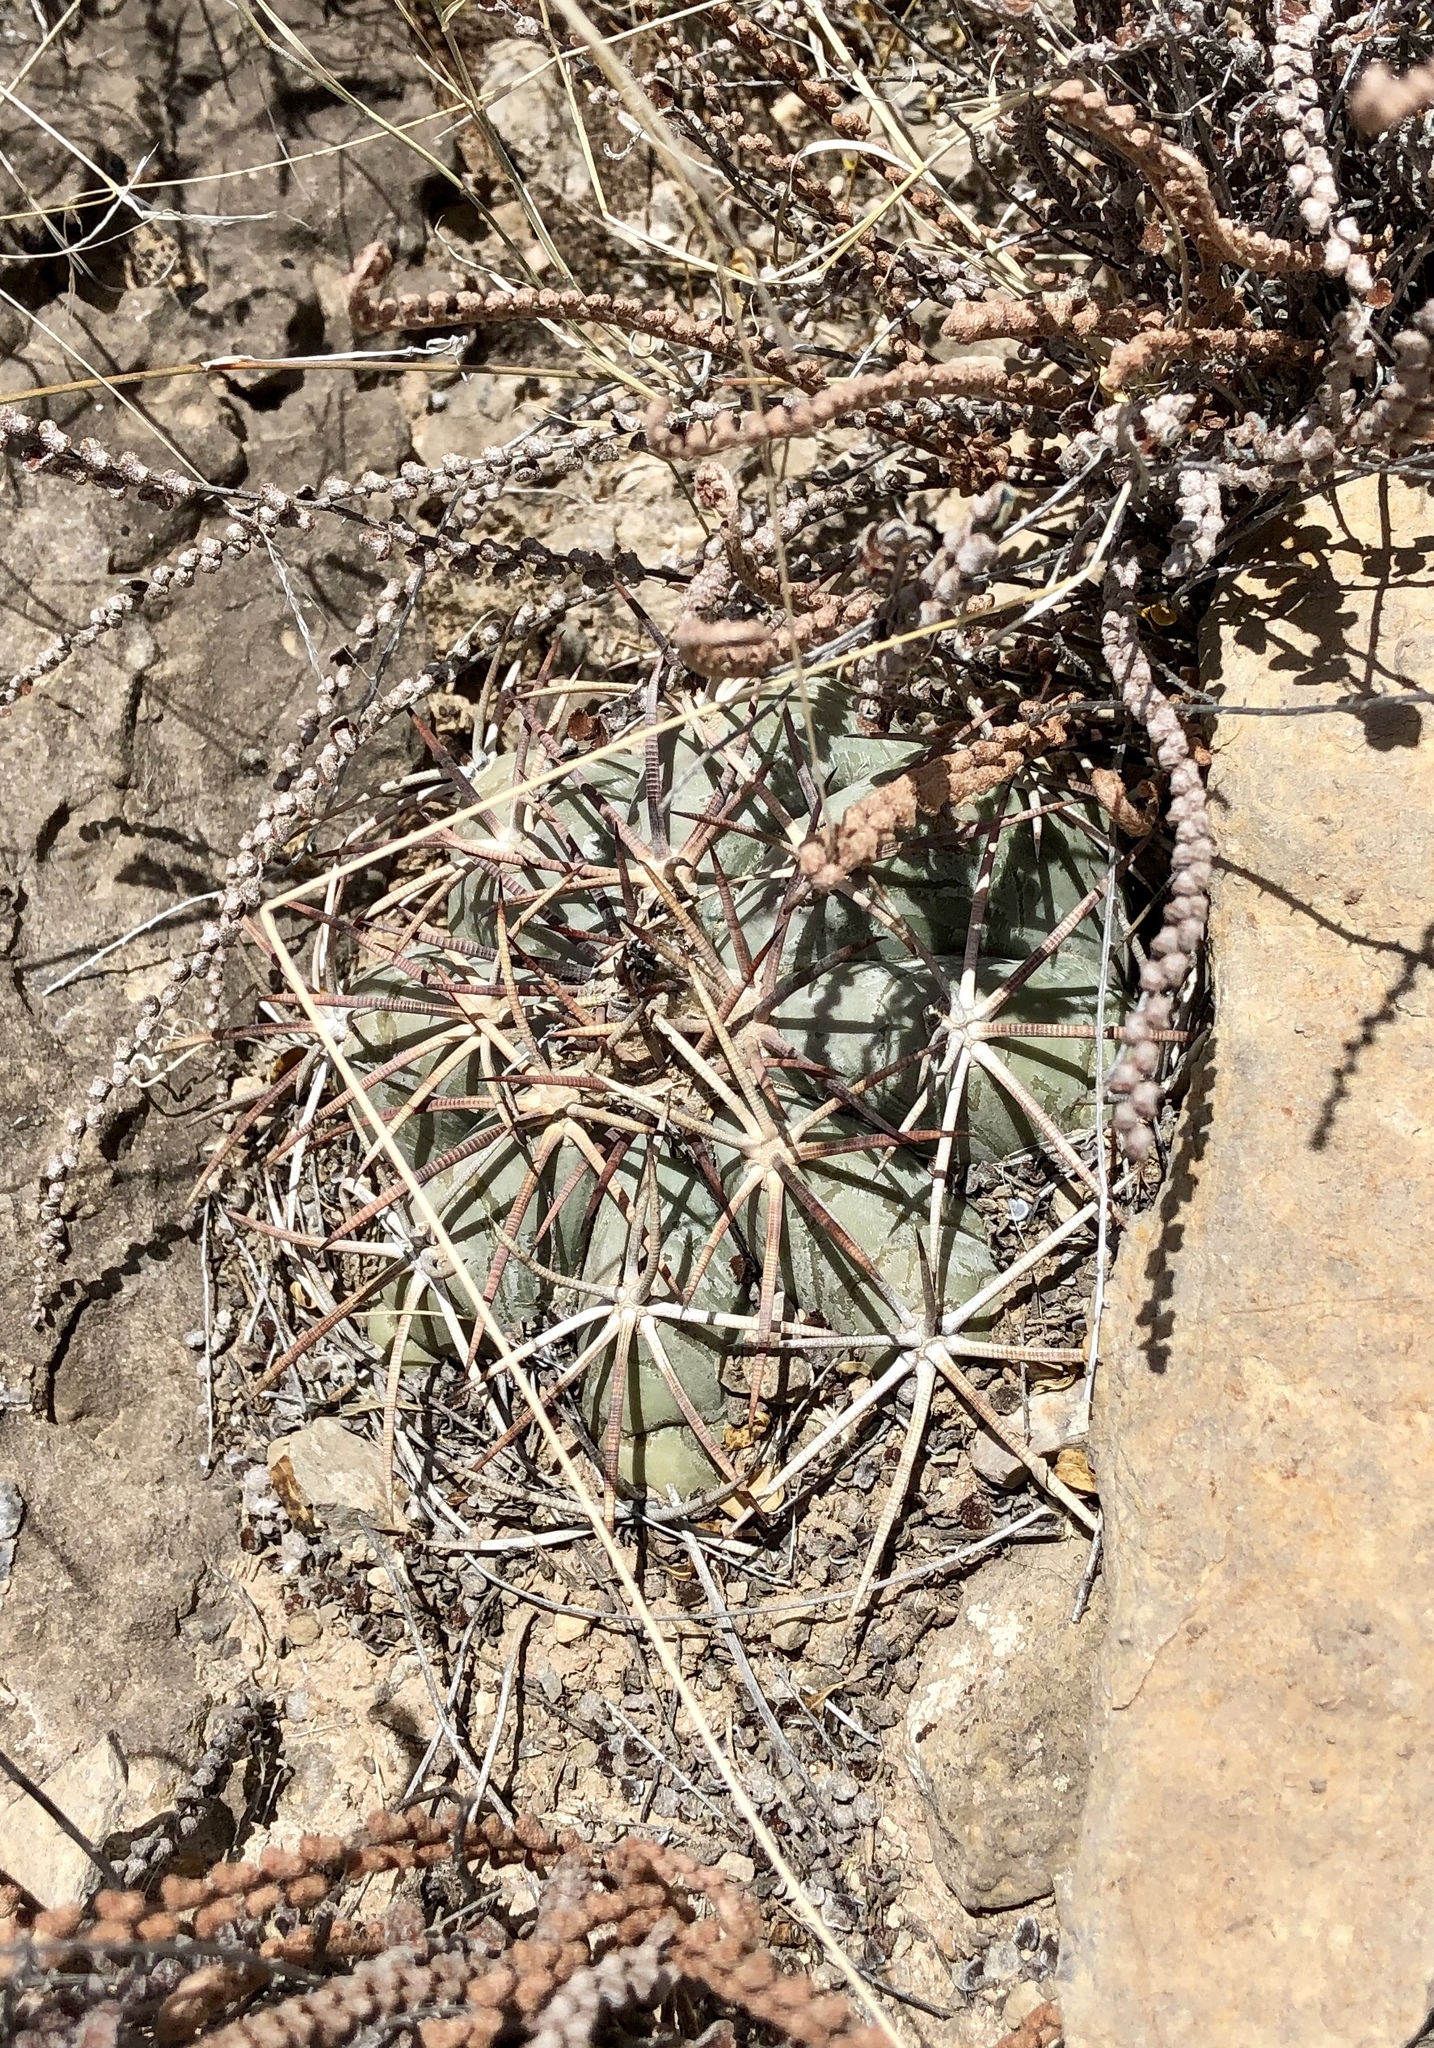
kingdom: Plantae
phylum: Tracheophyta
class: Magnoliopsida
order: Caryophyllales
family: Cactaceae
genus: Echinocactus
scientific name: Echinocactus horizonthalonius
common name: Devilshead
